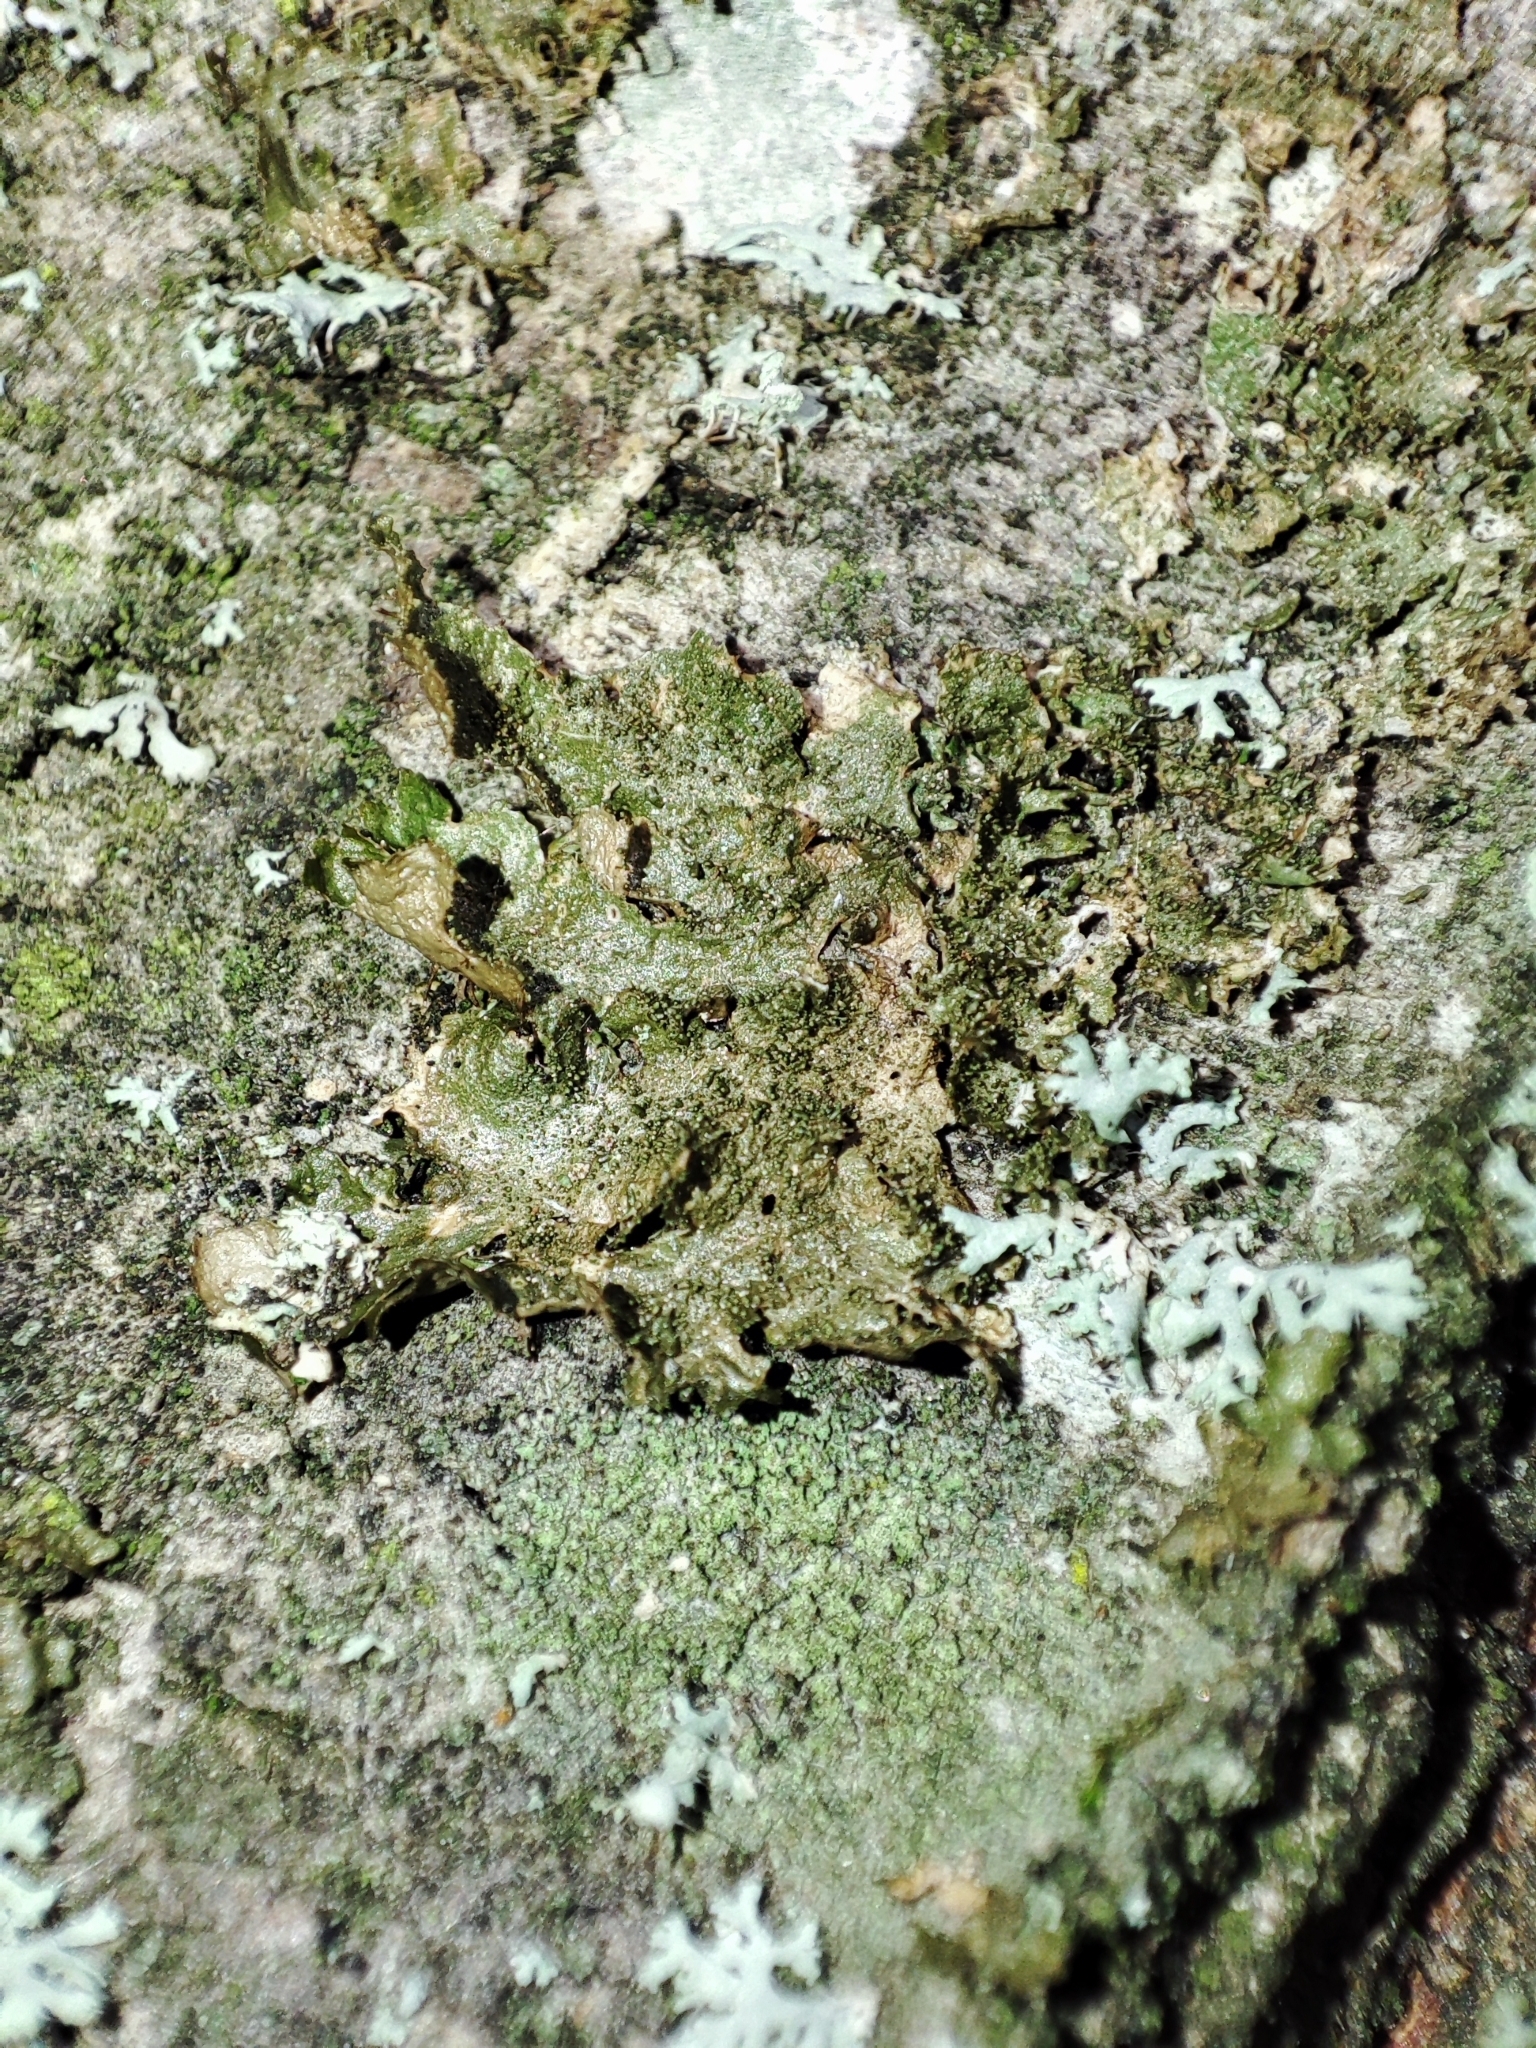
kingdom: Fungi
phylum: Ascomycota
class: Lecanoromycetes
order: Lecanorales
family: Parmeliaceae
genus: Melanohalea
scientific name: Melanohalea exasperatula
